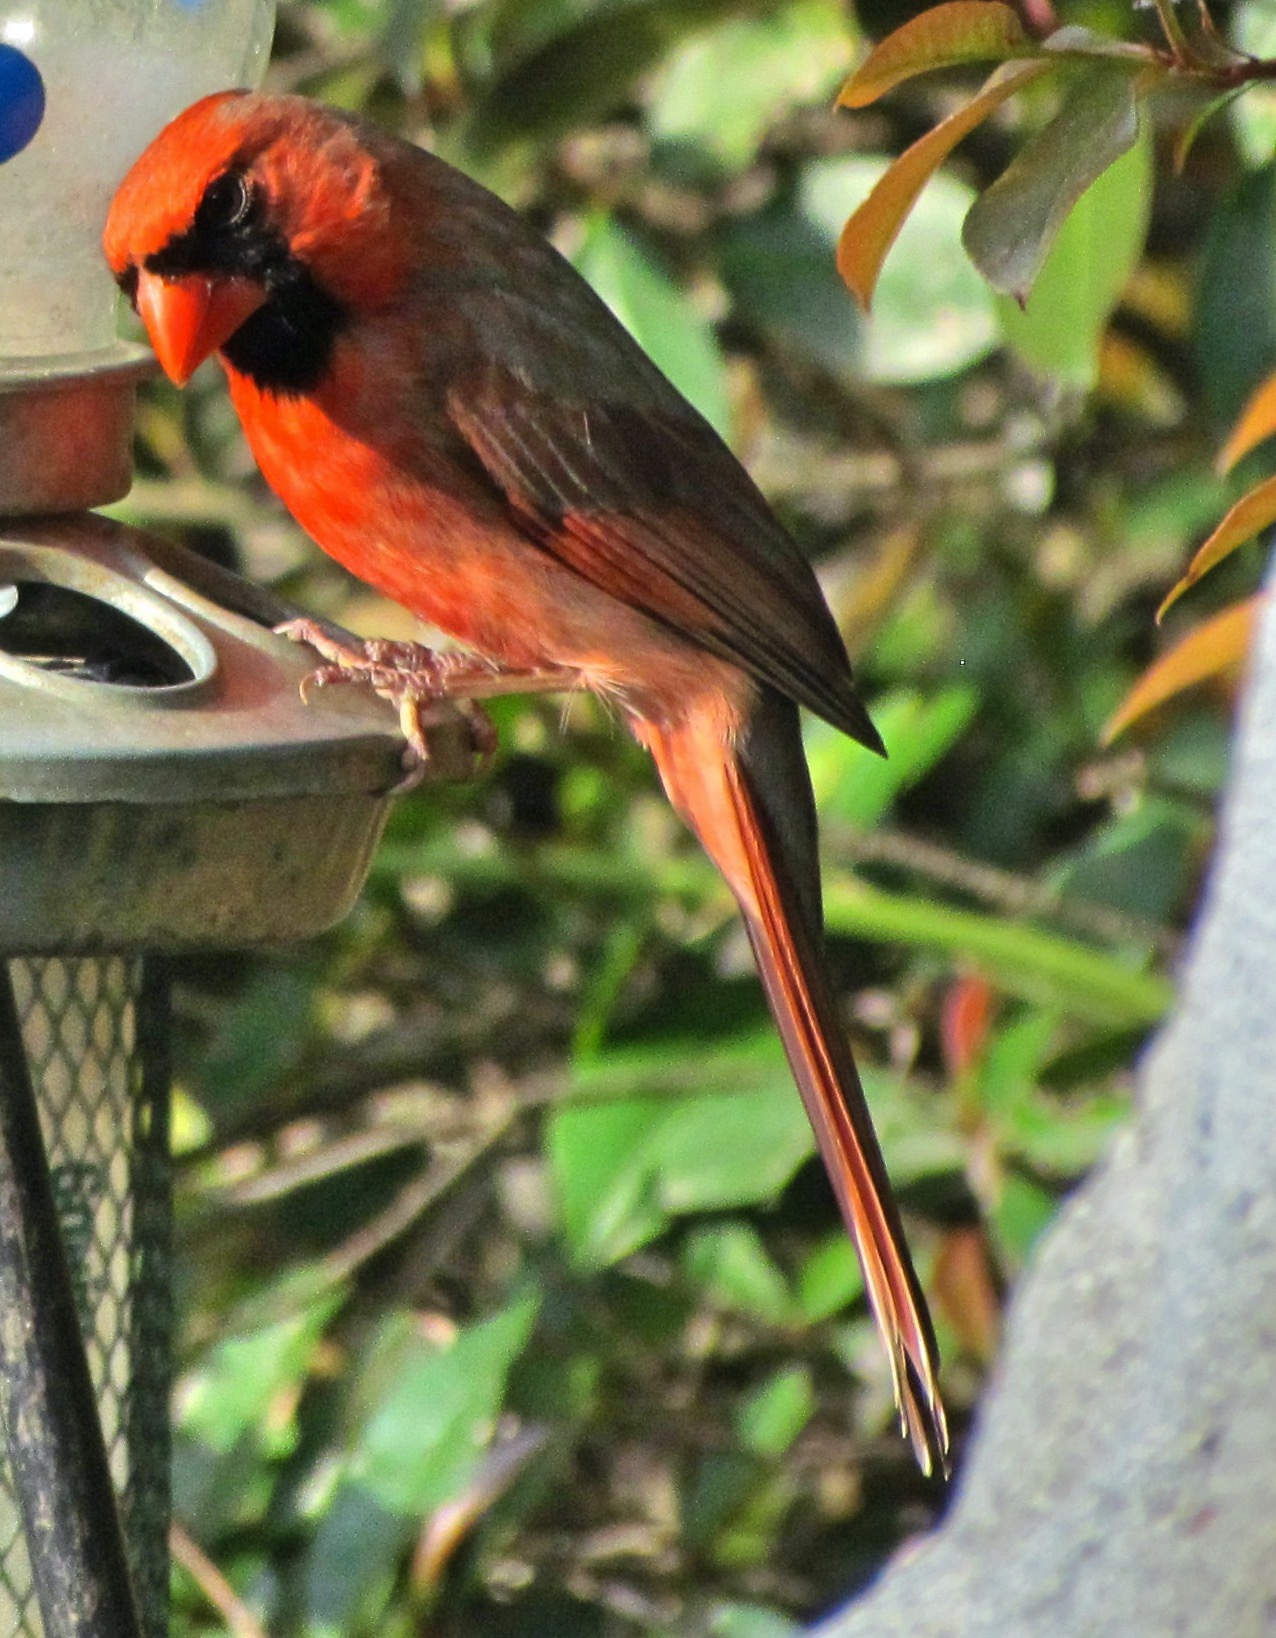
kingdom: Animalia
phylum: Chordata
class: Aves
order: Passeriformes
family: Cardinalidae
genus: Cardinalis
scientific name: Cardinalis cardinalis
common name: Northern cardinal
